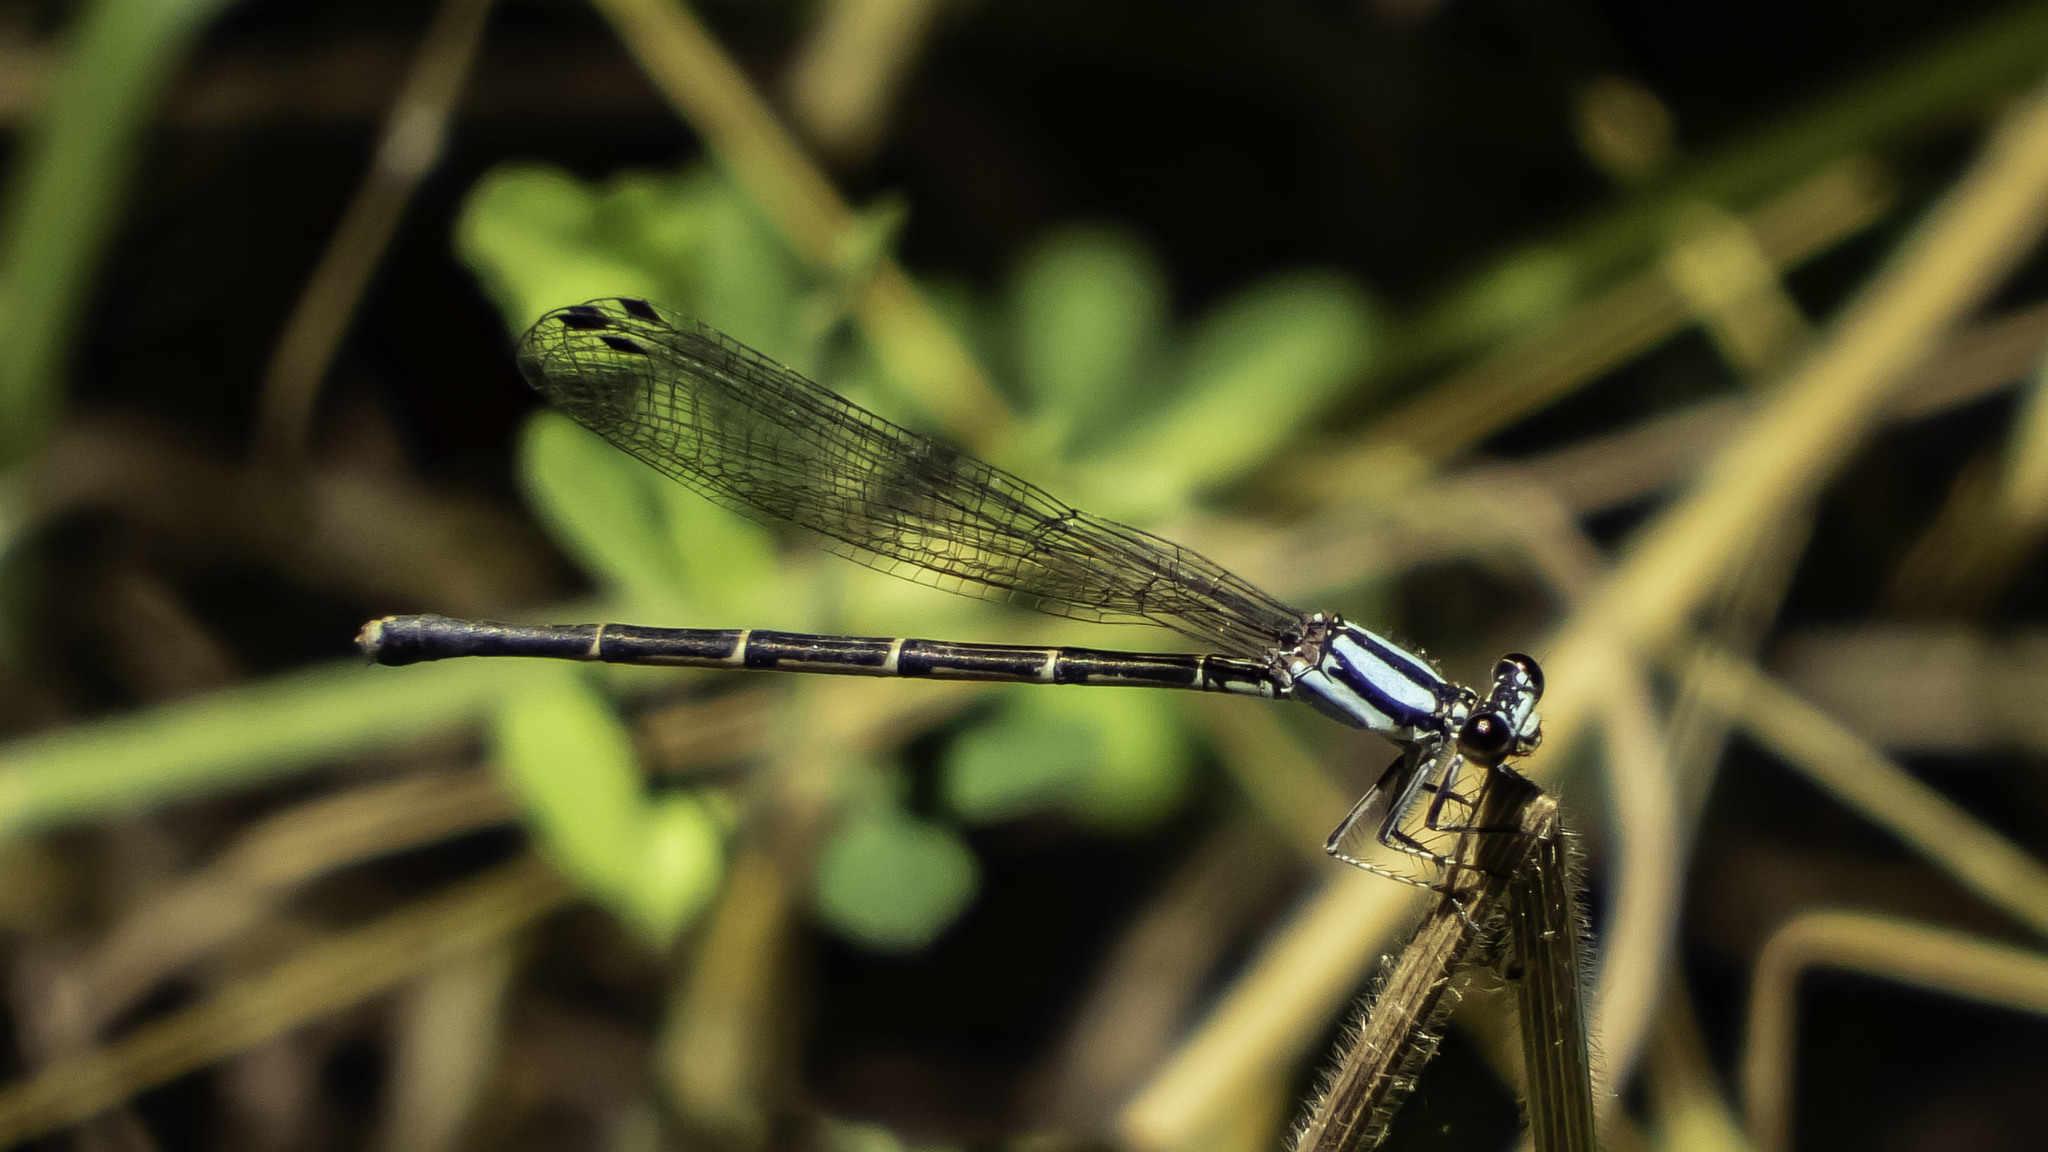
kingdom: Animalia
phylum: Arthropoda
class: Insecta
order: Odonata
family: Coenagrionidae
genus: Argia
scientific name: Argia tibialis
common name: Blue-tipped dancer
